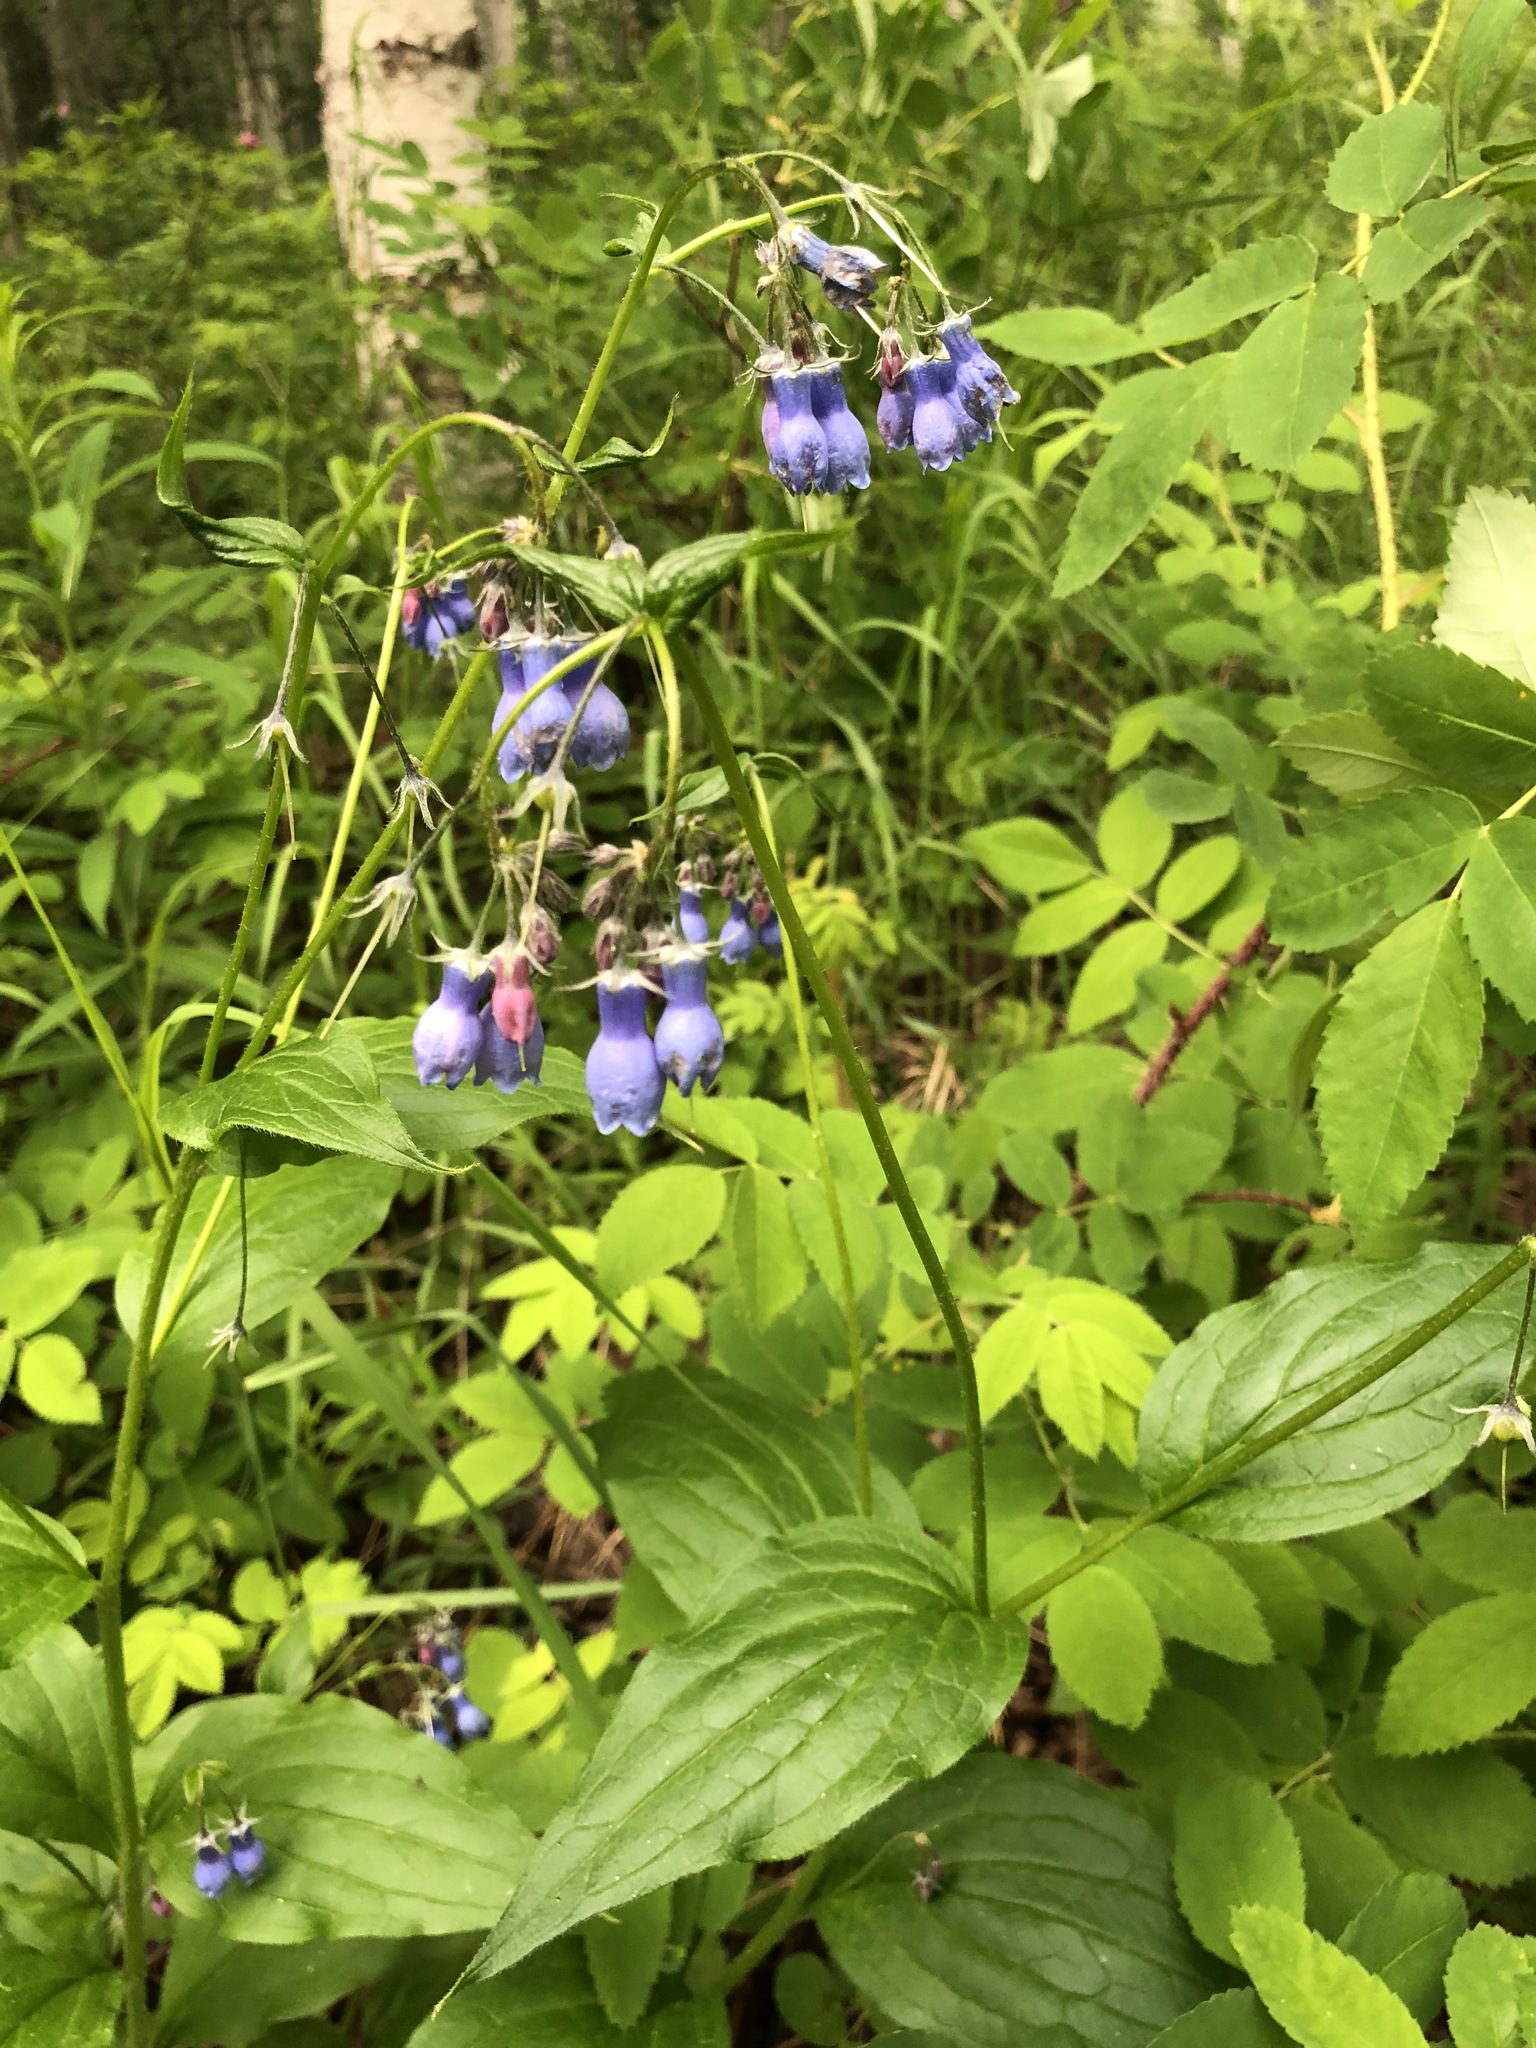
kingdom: Plantae
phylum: Tracheophyta
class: Magnoliopsida
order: Boraginales
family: Boraginaceae
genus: Mertensia
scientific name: Mertensia paniculata
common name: Panicled bluebells
